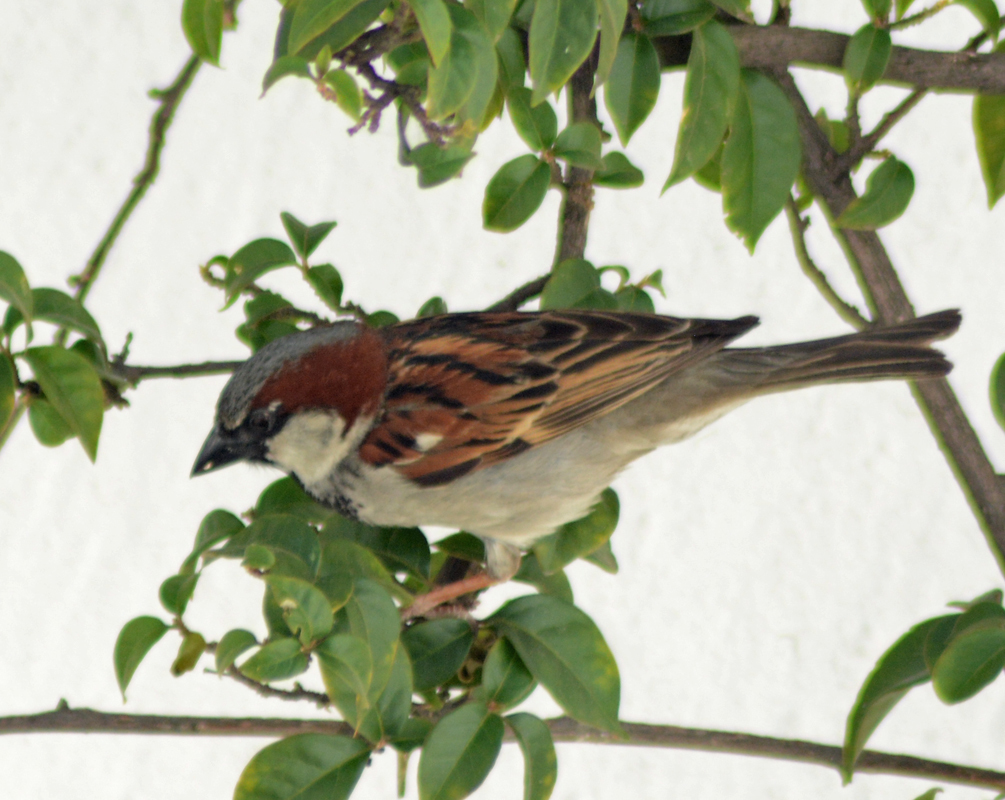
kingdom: Animalia
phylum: Chordata
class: Aves
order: Passeriformes
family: Passeridae
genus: Passer
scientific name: Passer domesticus
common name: House sparrow
